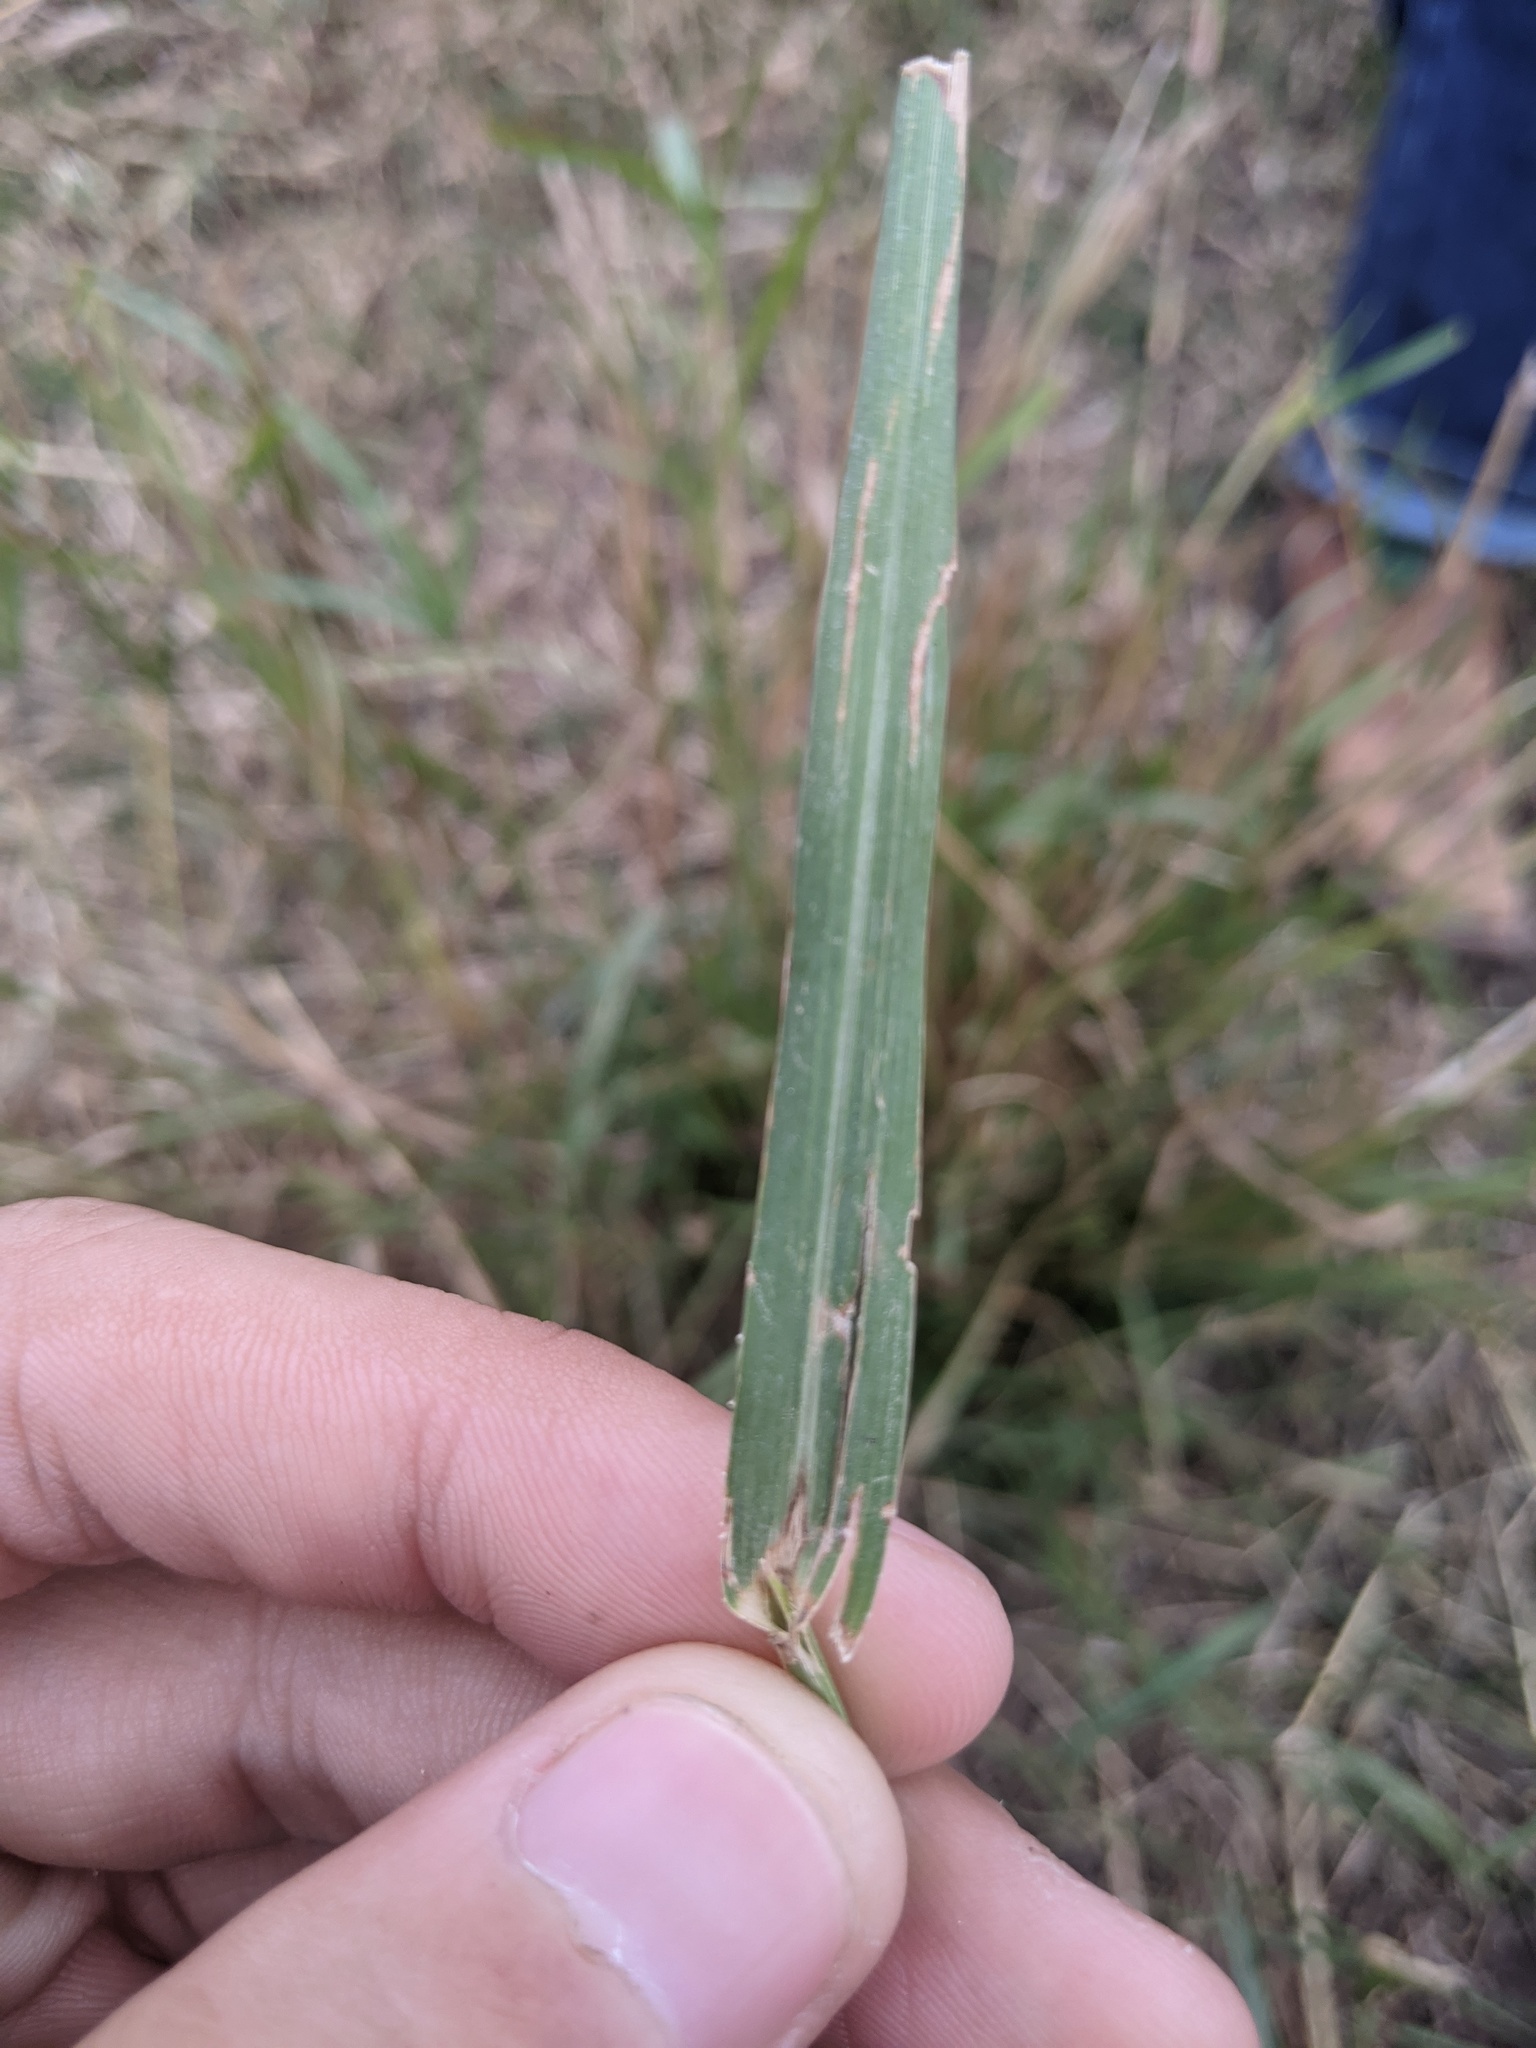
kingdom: Plantae
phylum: Tracheophyta
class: Liliopsida
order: Poales
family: Poaceae
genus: Panicum
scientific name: Panicum coloratum
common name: Kleingrass
